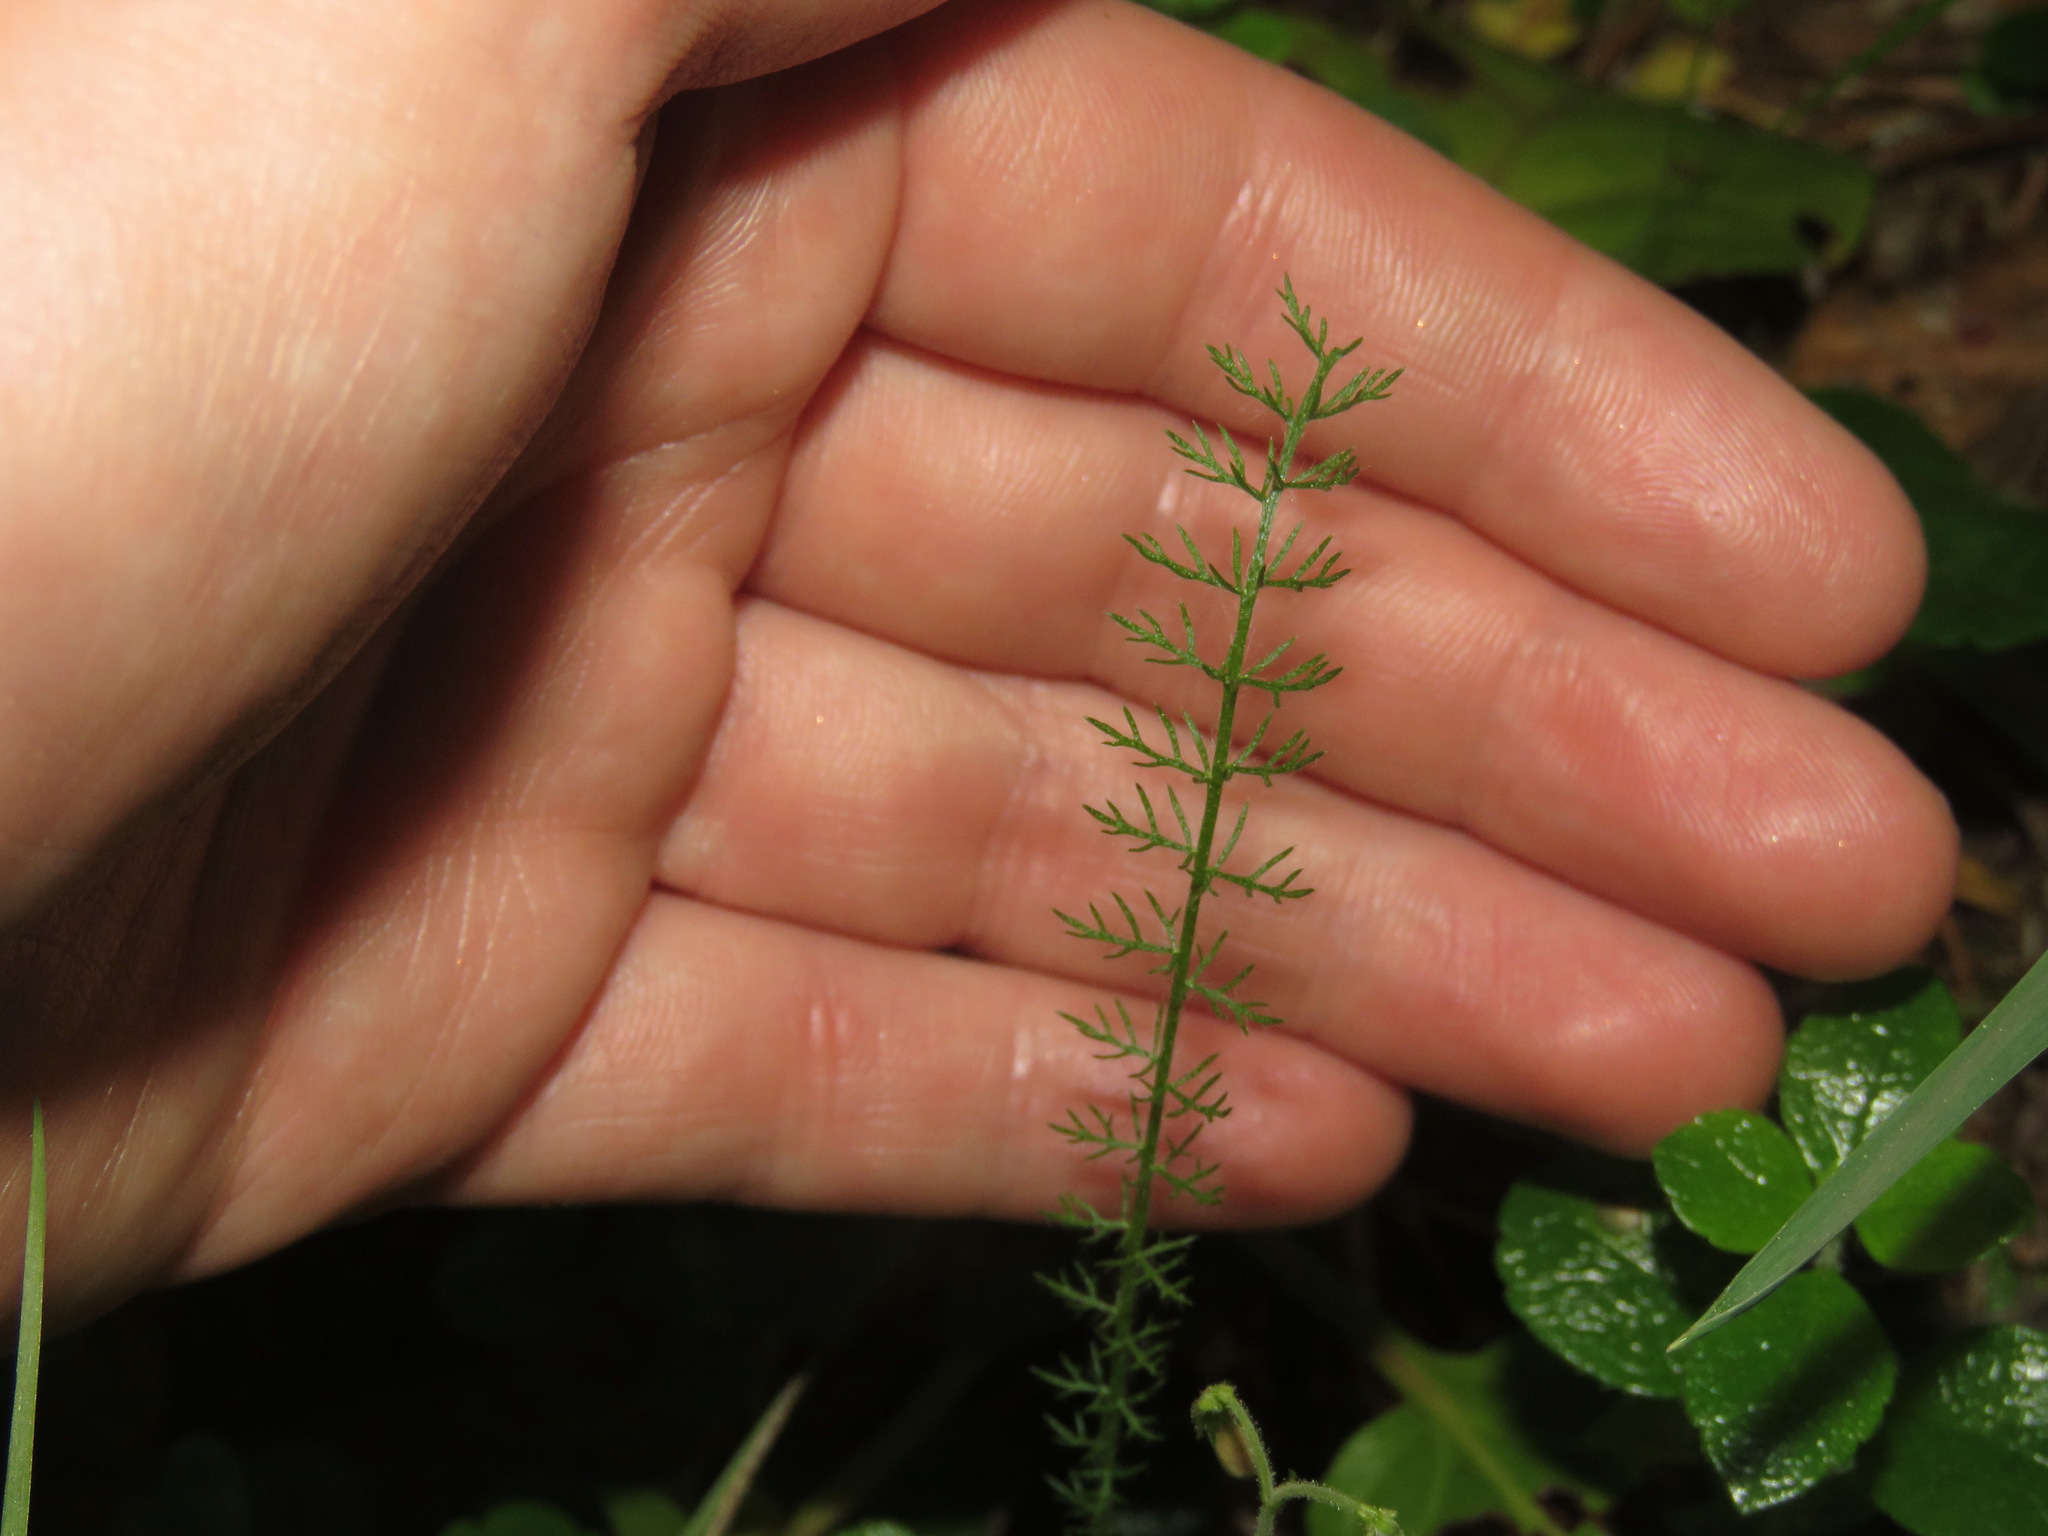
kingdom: Plantae
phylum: Tracheophyta
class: Magnoliopsida
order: Asterales
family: Asteraceae
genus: Achillea
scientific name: Achillea millefolium
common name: Yarrow
